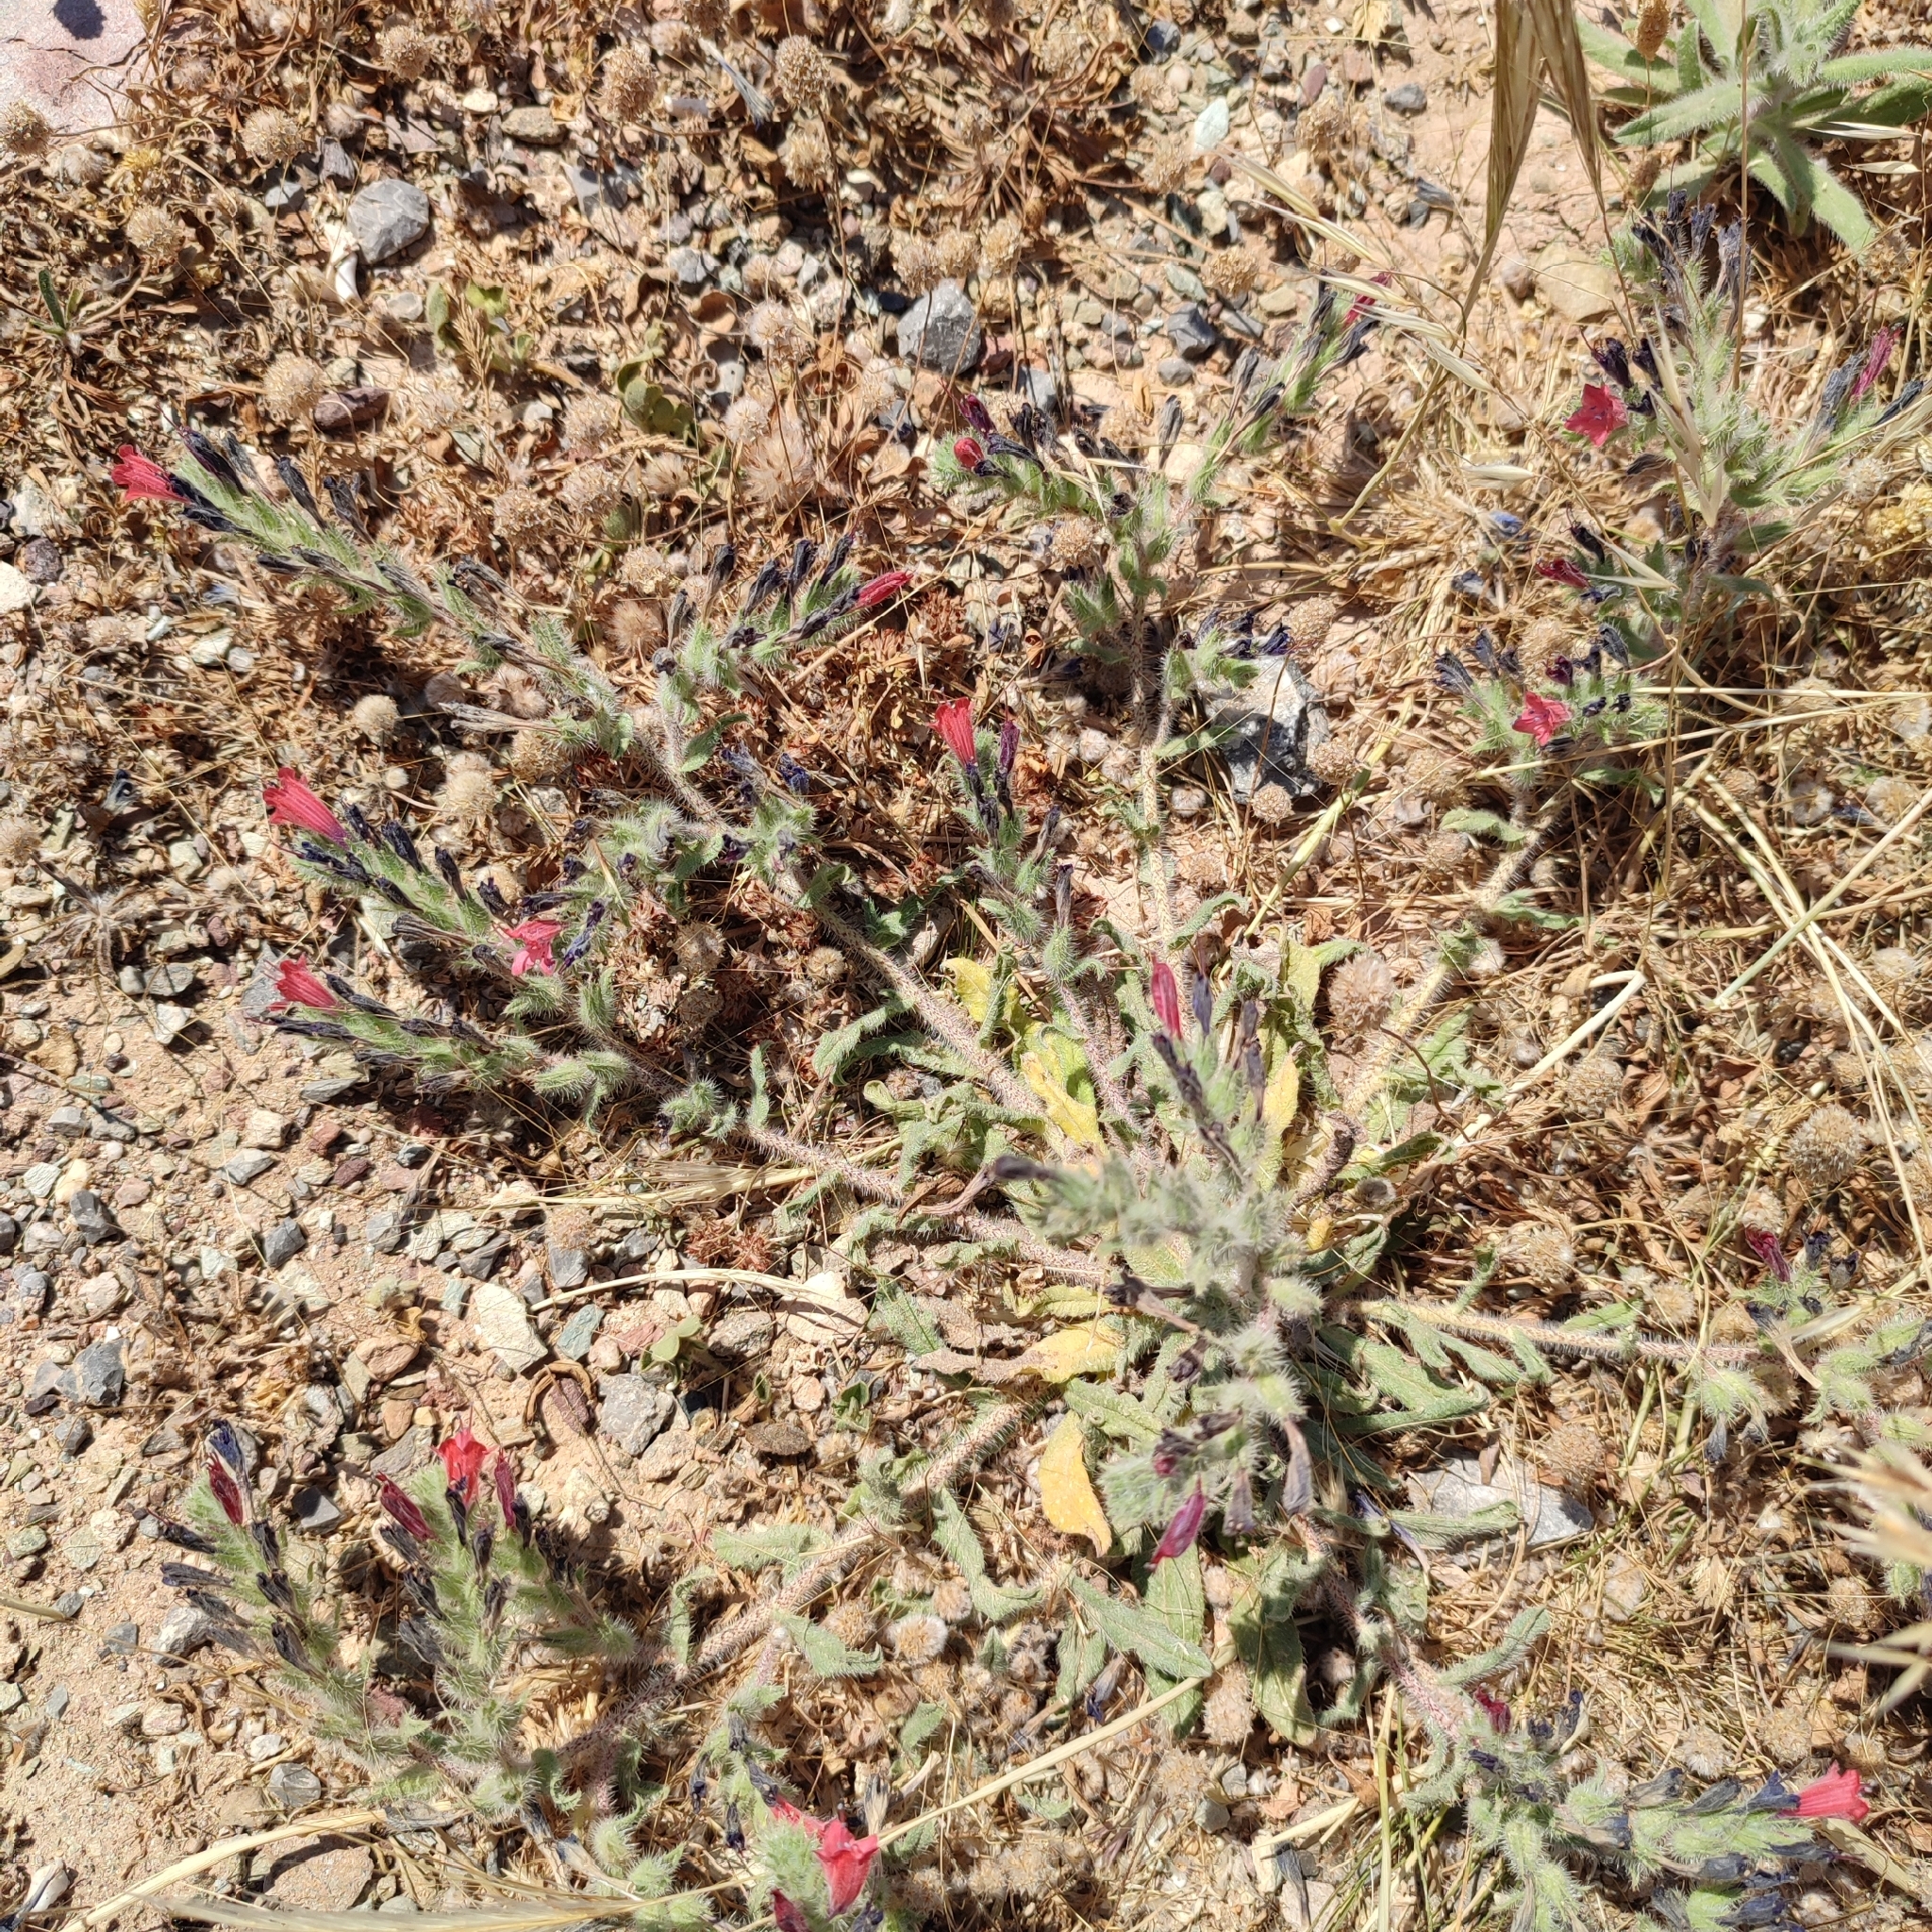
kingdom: Plantae
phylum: Tracheophyta
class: Magnoliopsida
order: Boraginales
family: Boraginaceae
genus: Echium
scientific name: Echium angustifolium
